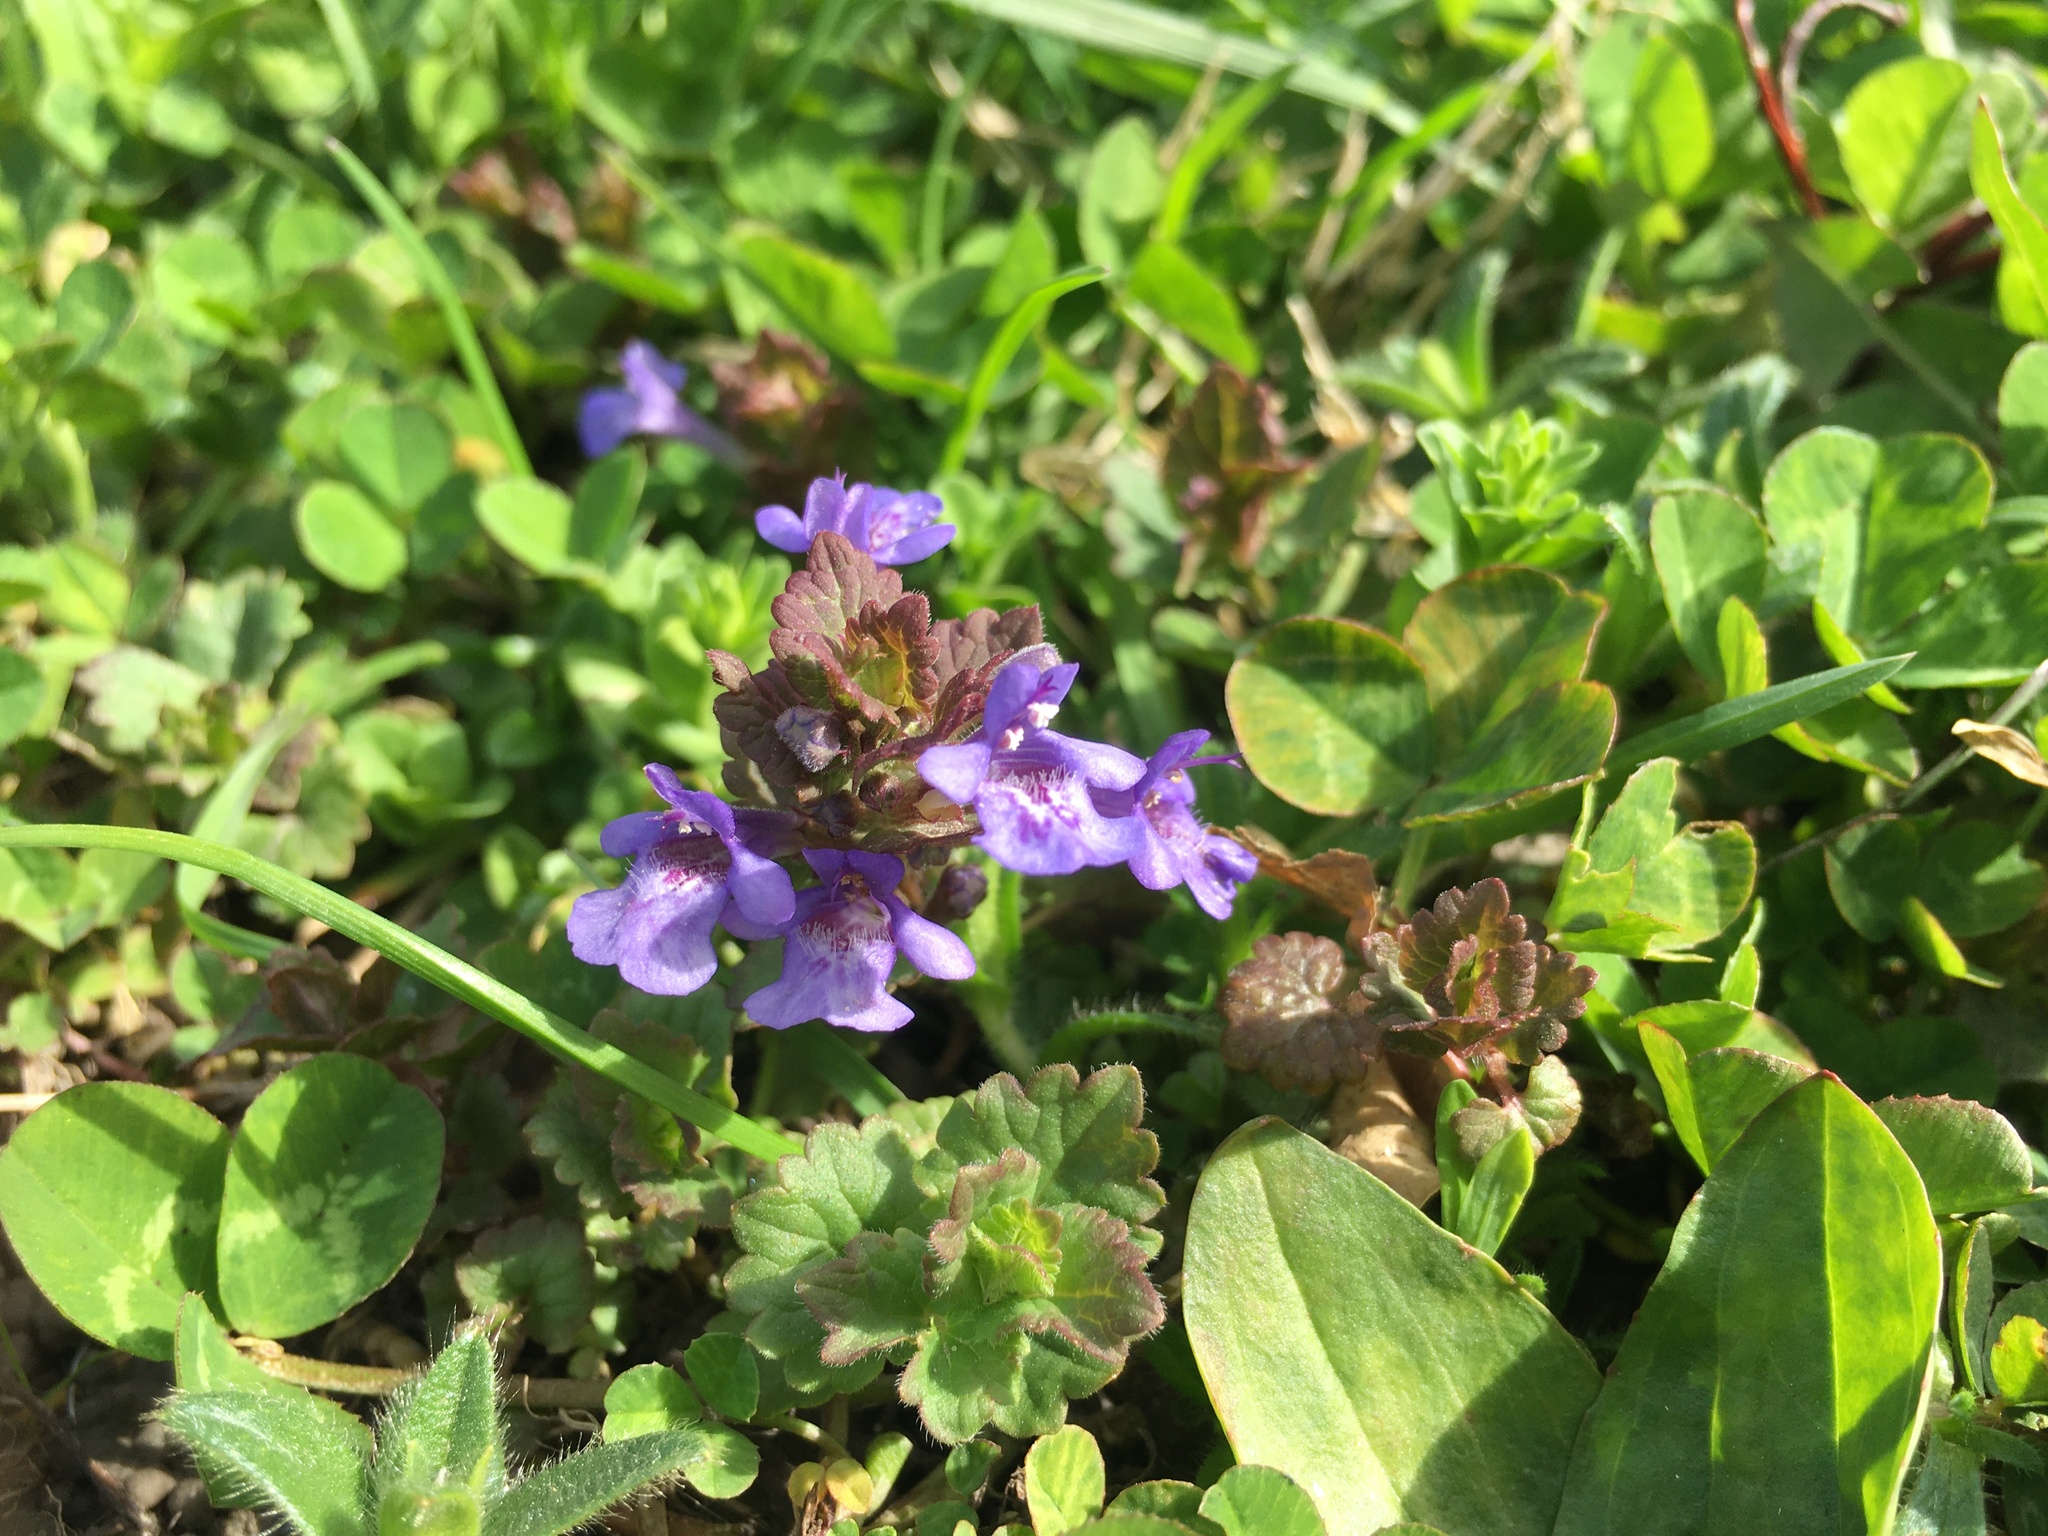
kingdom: Plantae
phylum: Tracheophyta
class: Magnoliopsida
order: Lamiales
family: Lamiaceae
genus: Glechoma
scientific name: Glechoma hederacea
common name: Ground ivy
